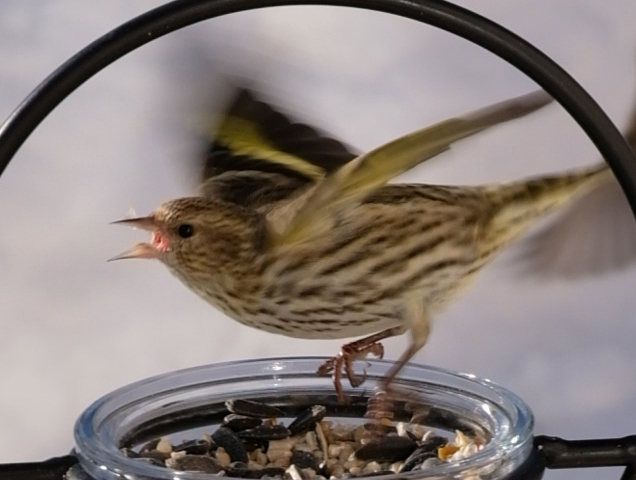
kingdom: Animalia
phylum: Chordata
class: Aves
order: Passeriformes
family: Fringillidae
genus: Spinus
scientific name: Spinus pinus
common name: Pine siskin
